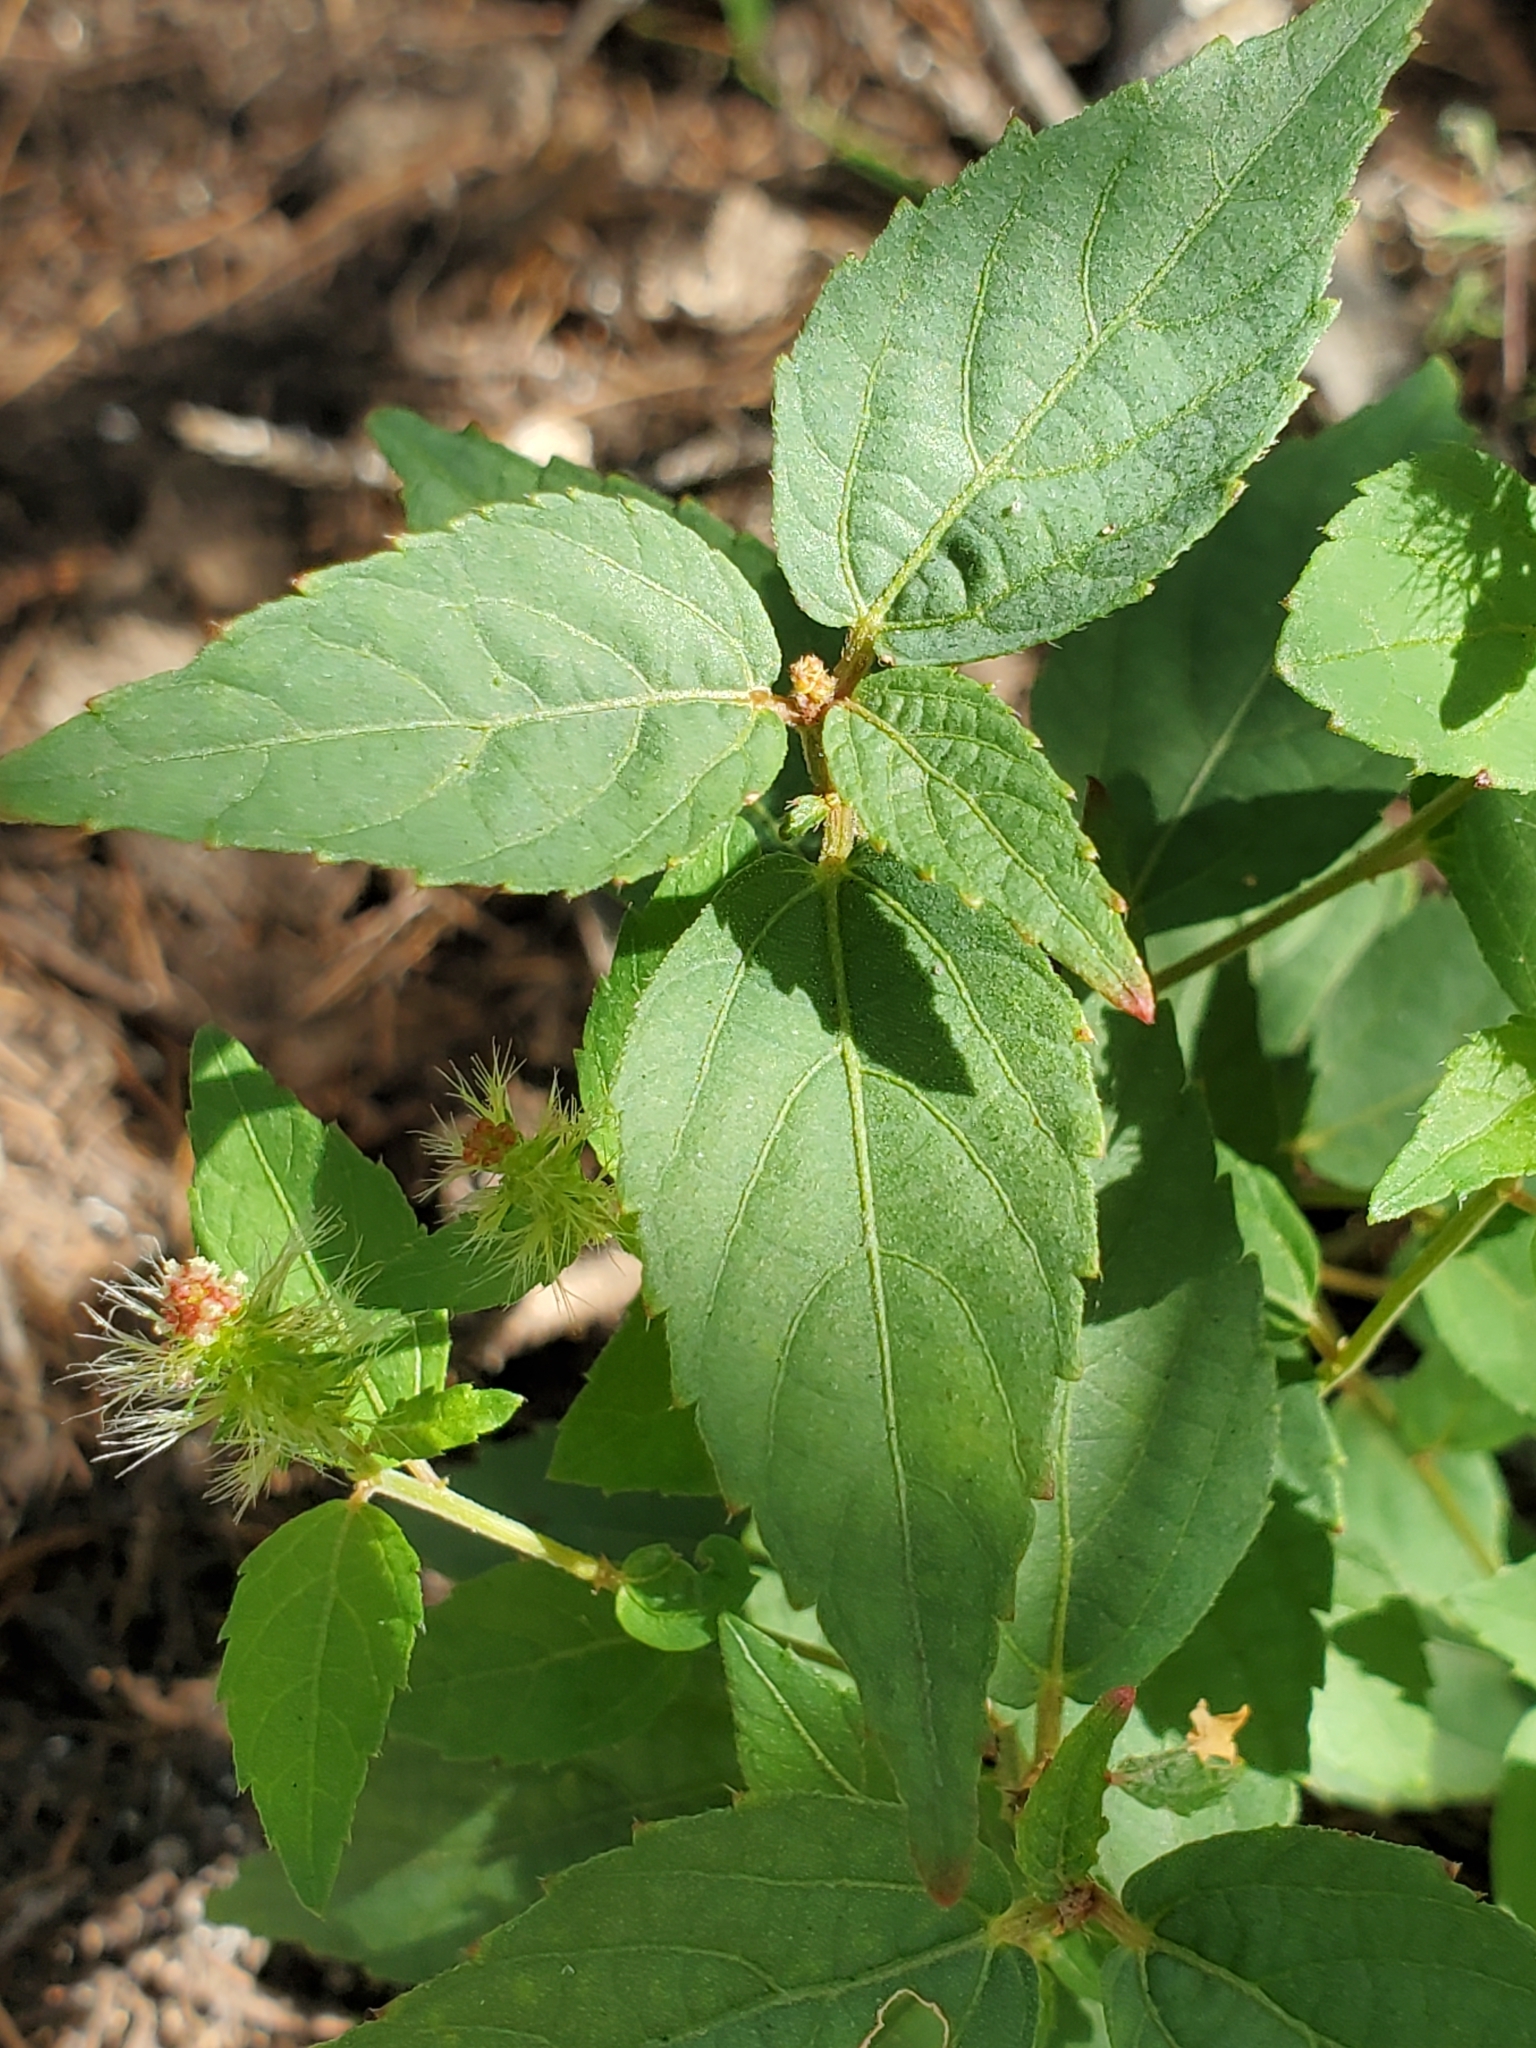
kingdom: Plantae
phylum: Tracheophyta
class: Magnoliopsida
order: Malpighiales
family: Euphorbiaceae
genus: Acalypha
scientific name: Acalypha phleoides
